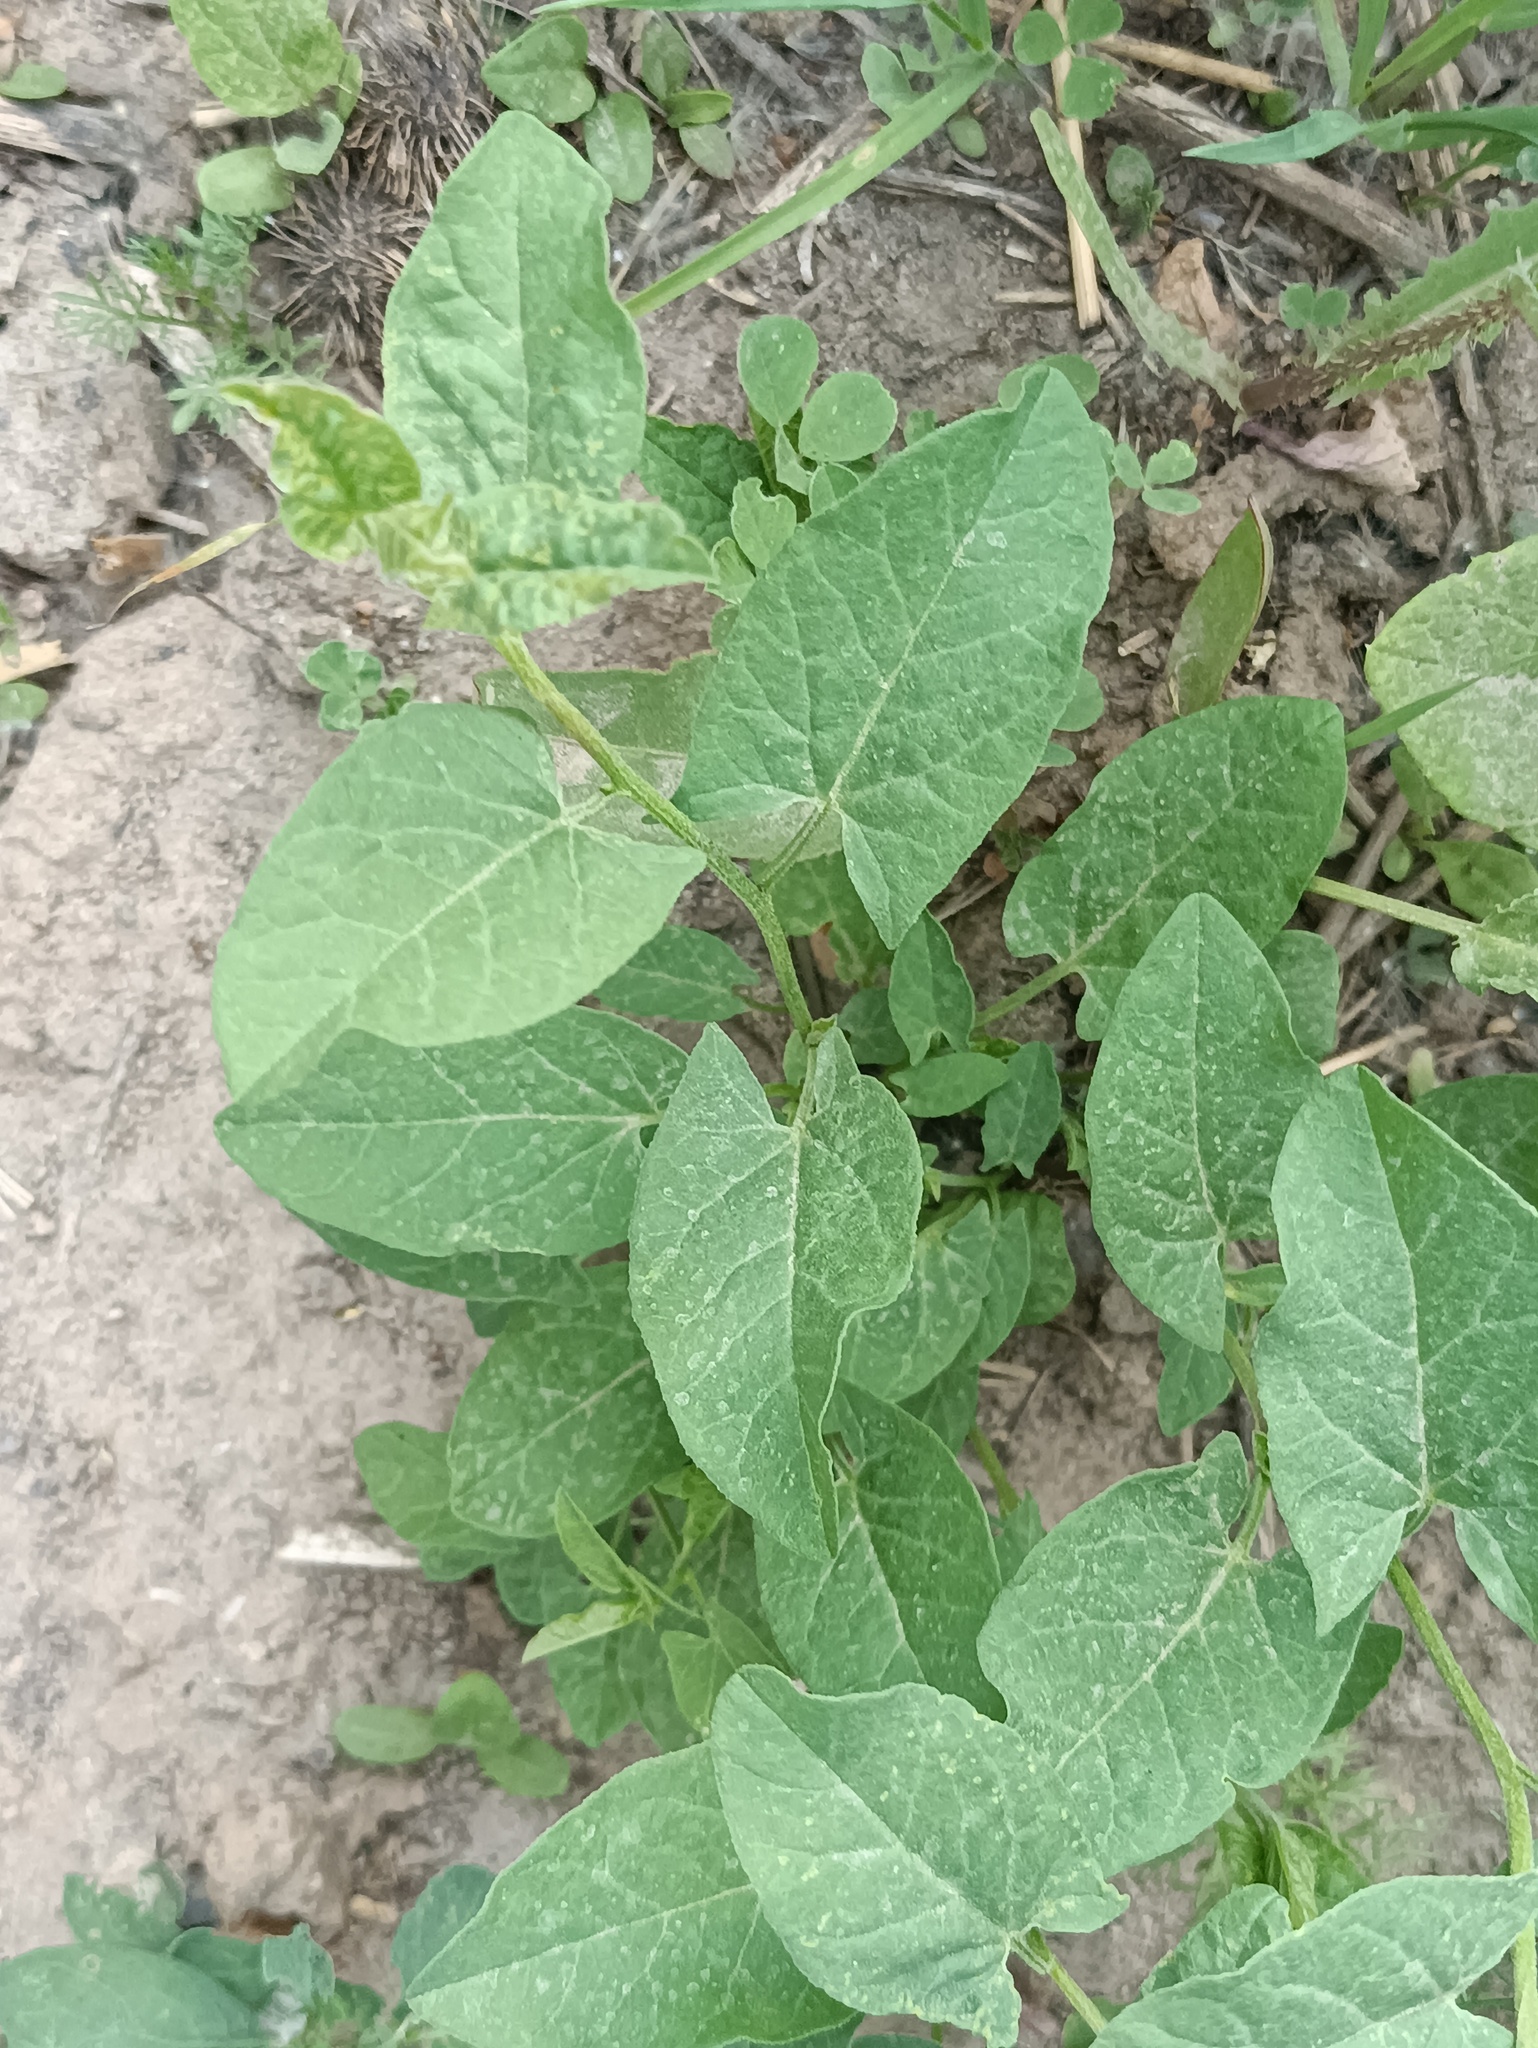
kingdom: Plantae
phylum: Tracheophyta
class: Magnoliopsida
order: Solanales
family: Convolvulaceae
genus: Convolvulus
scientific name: Convolvulus arvensis
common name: Field bindweed
